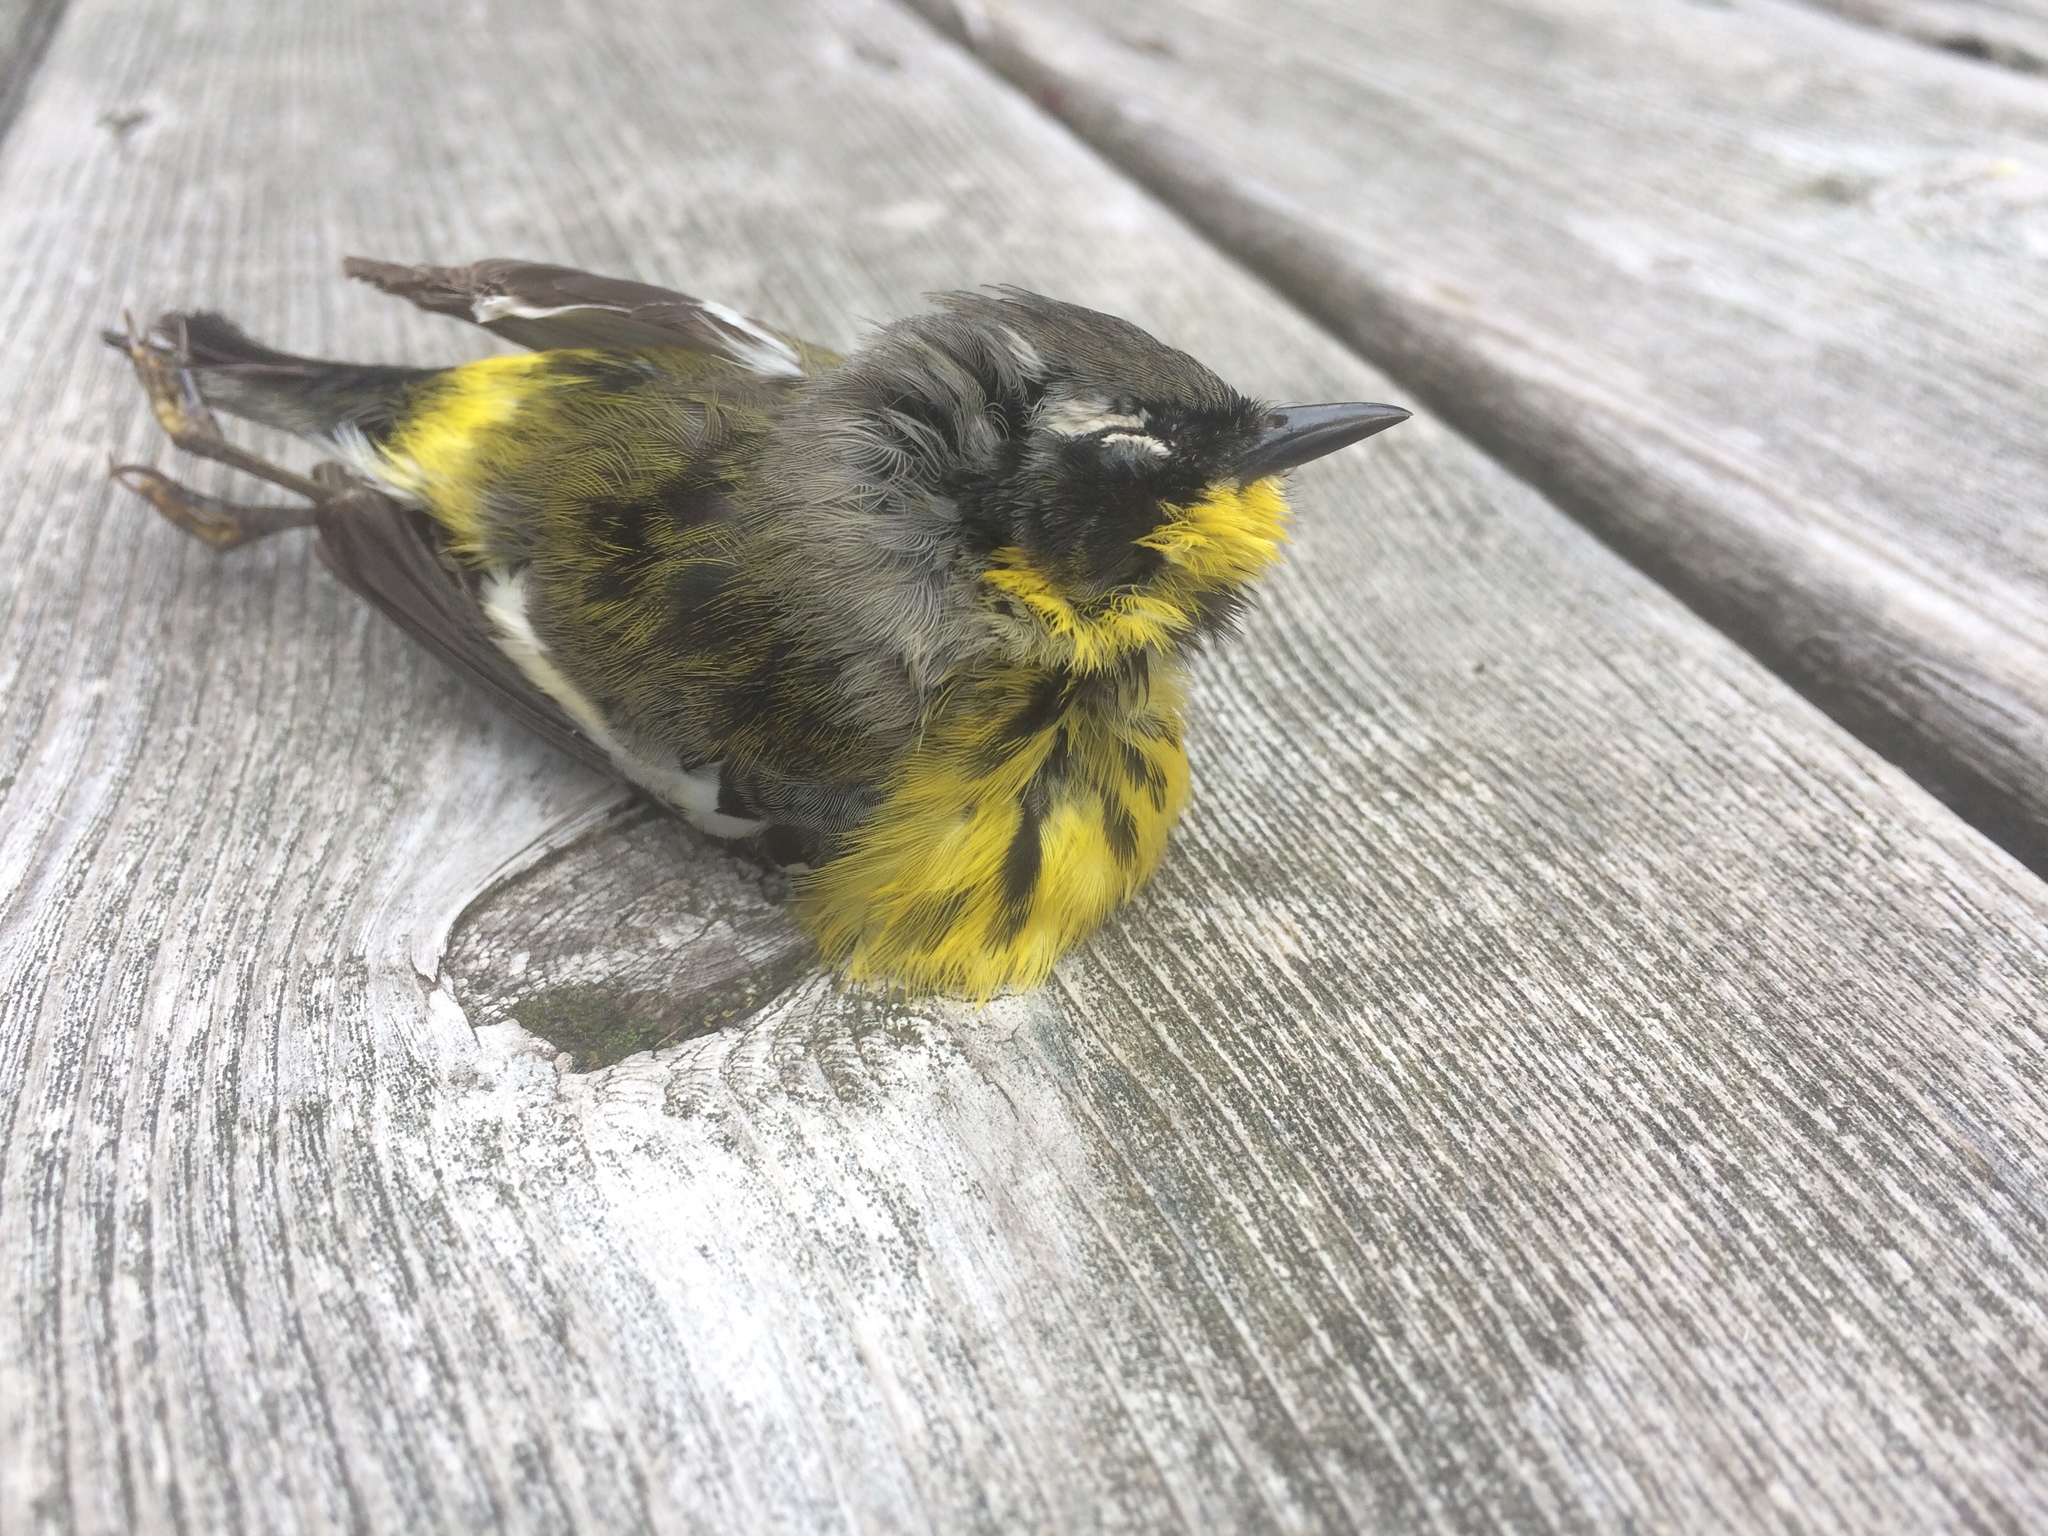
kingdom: Animalia
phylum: Chordata
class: Aves
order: Passeriformes
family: Parulidae
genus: Setophaga
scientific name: Setophaga magnolia
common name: Magnolia warbler
